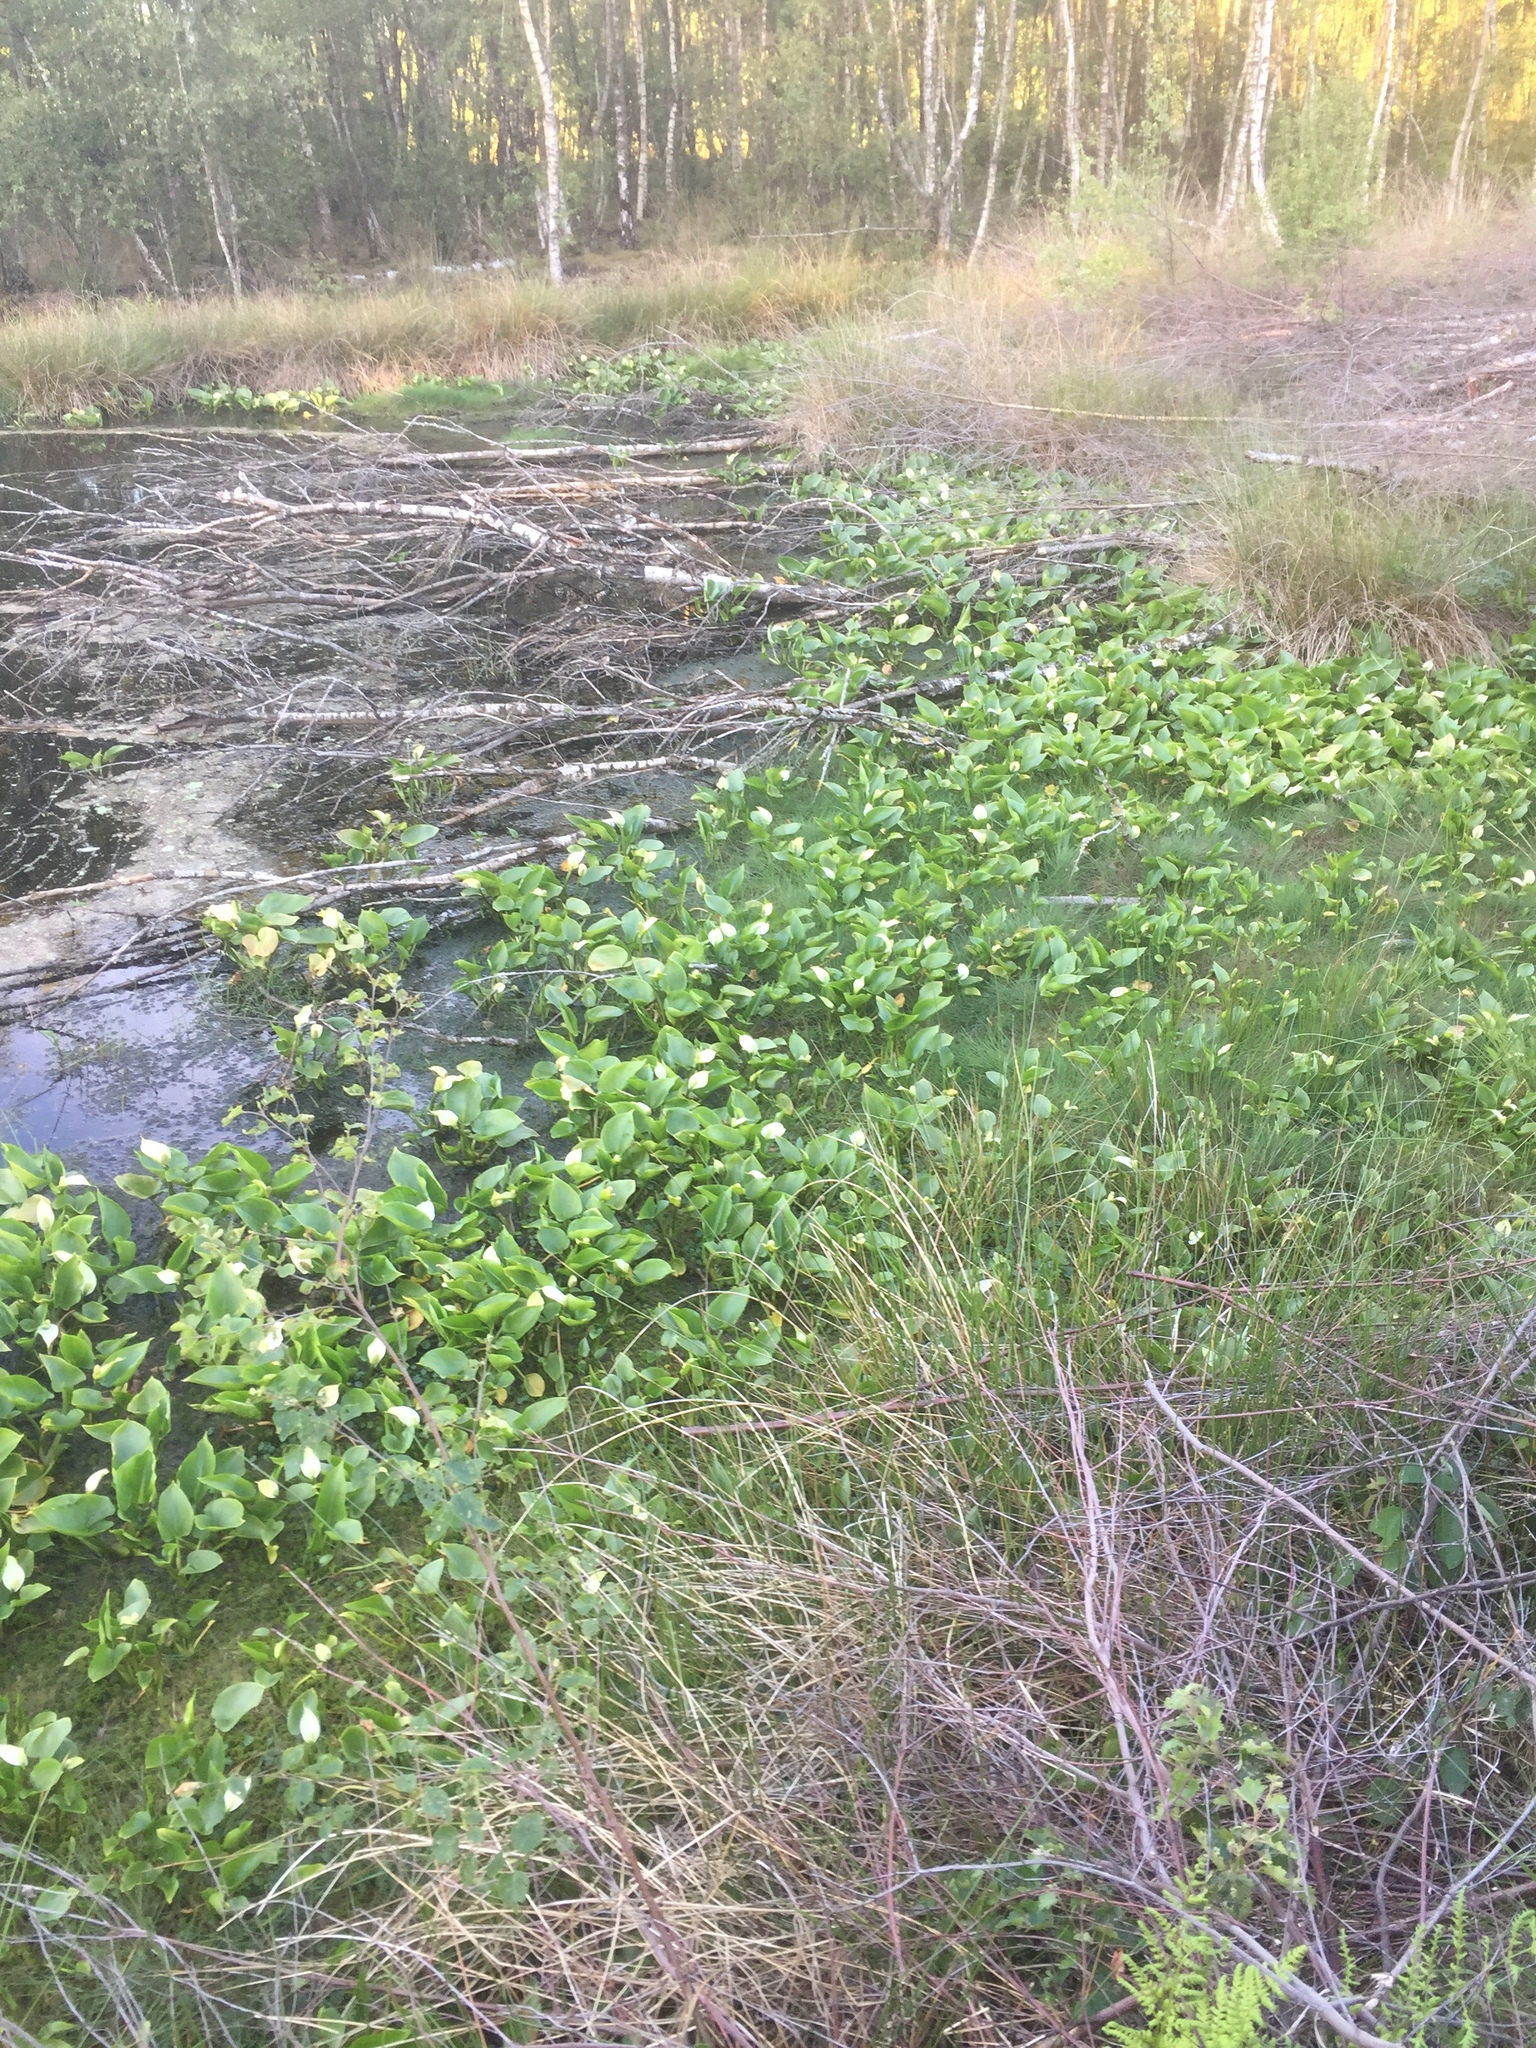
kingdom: Plantae
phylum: Tracheophyta
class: Liliopsida
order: Alismatales
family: Araceae
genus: Calla
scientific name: Calla palustris
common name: Bog arum
